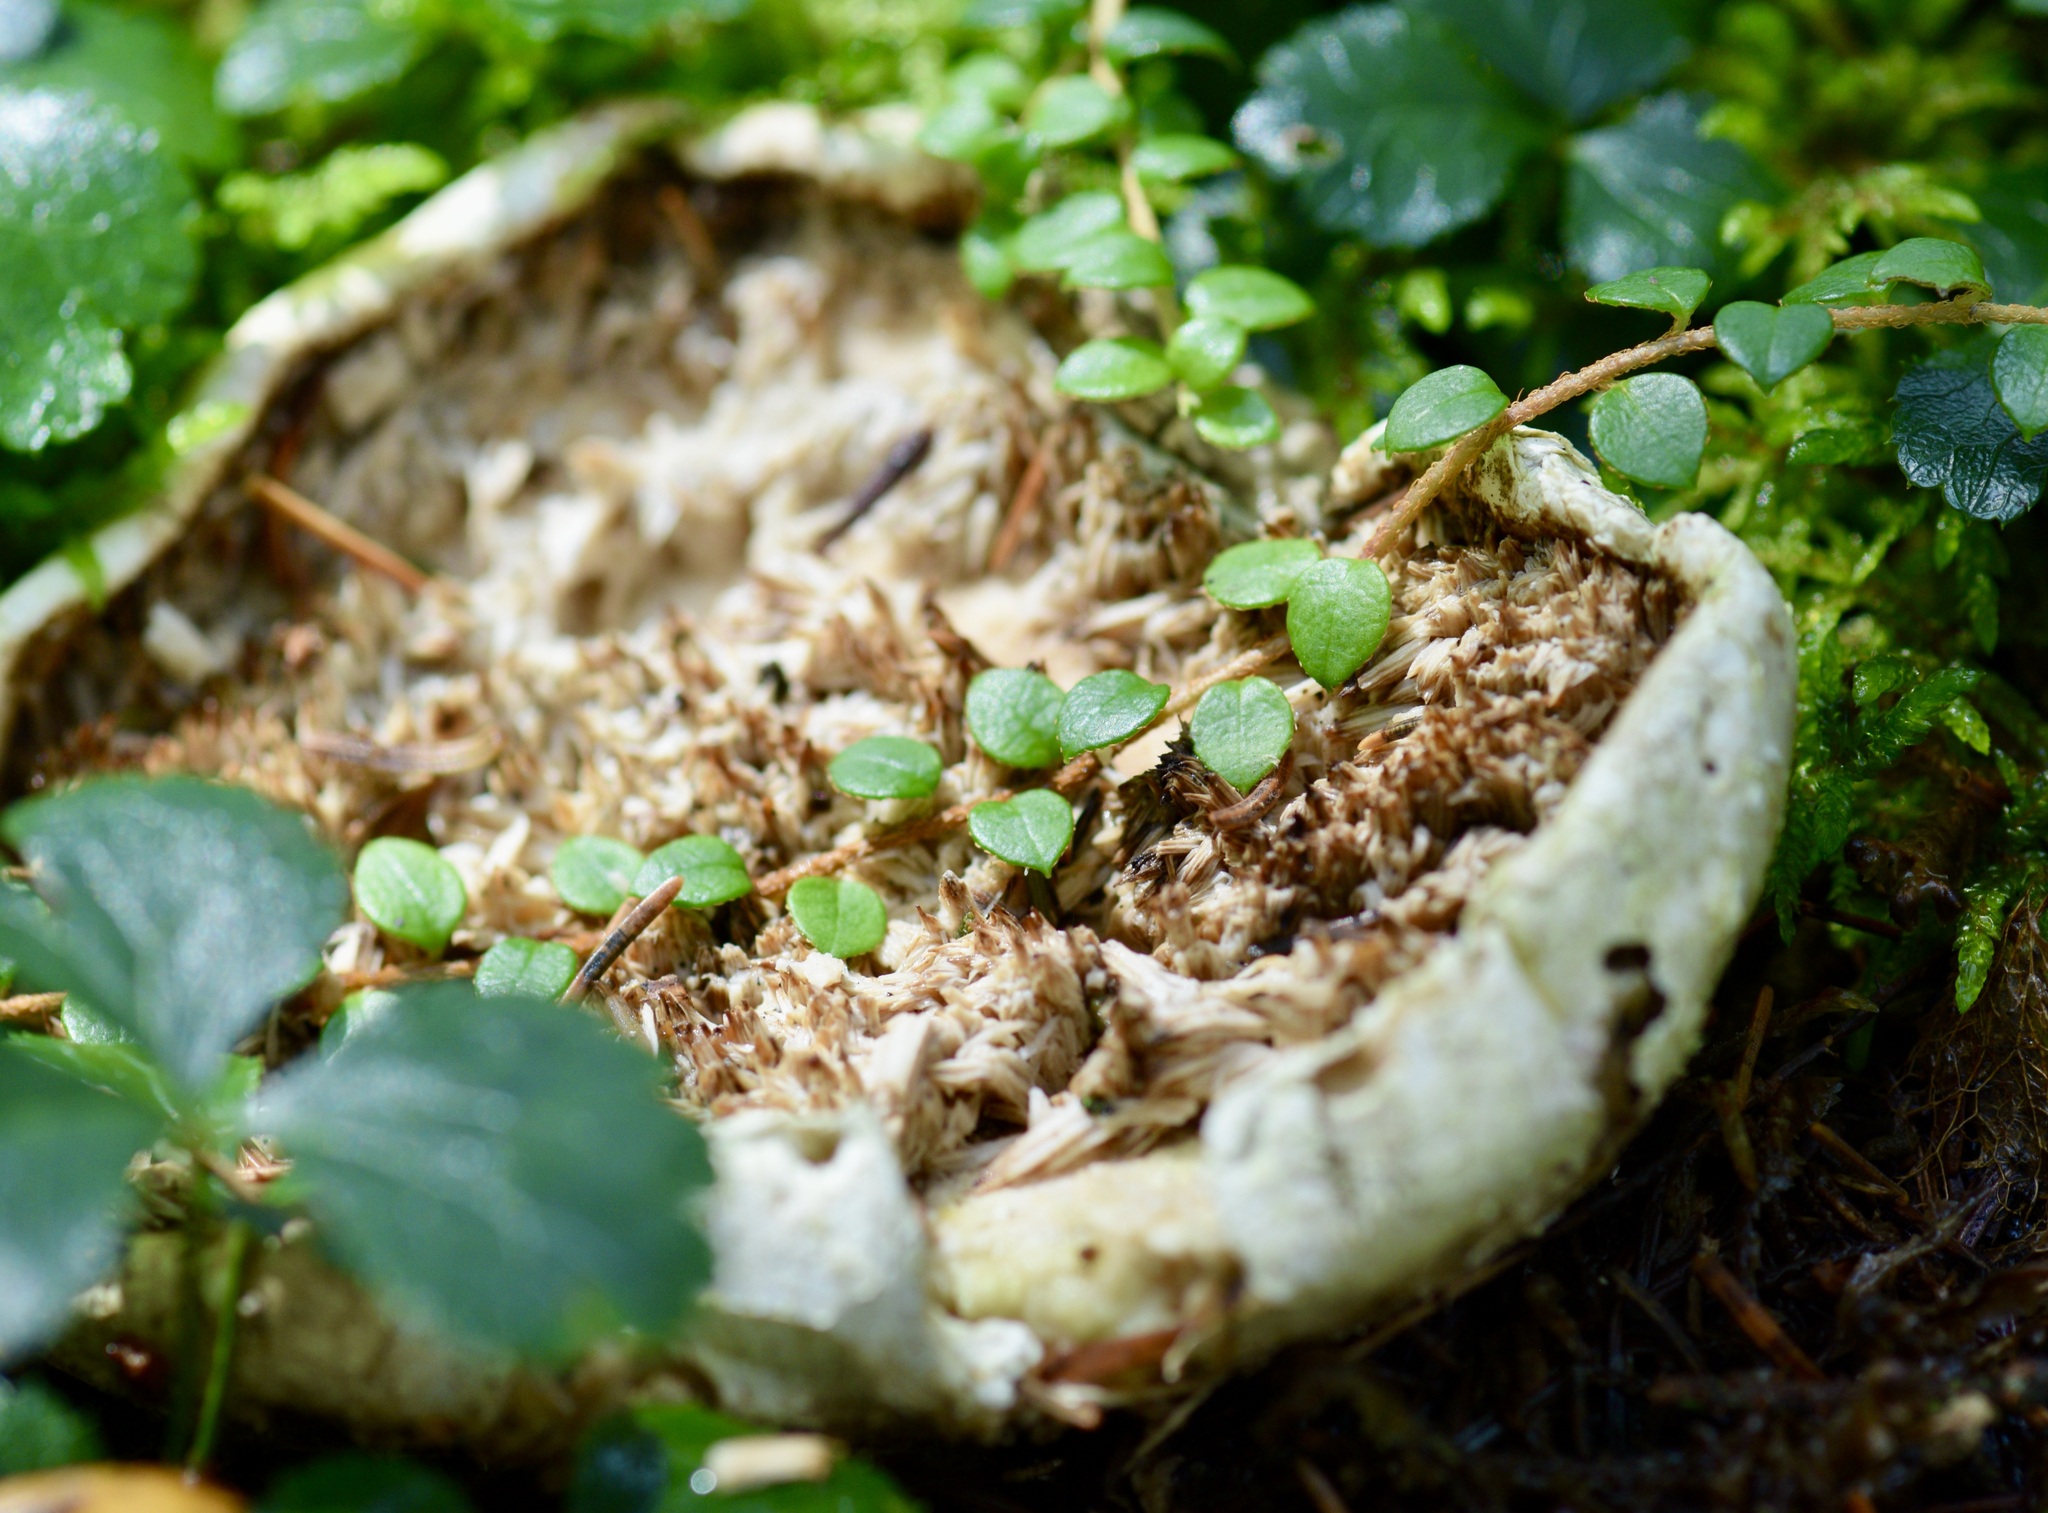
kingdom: Plantae
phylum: Tracheophyta
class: Magnoliopsida
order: Ericales
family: Ericaceae
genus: Gaultheria
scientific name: Gaultheria hispidula
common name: Cancer wintergreen
